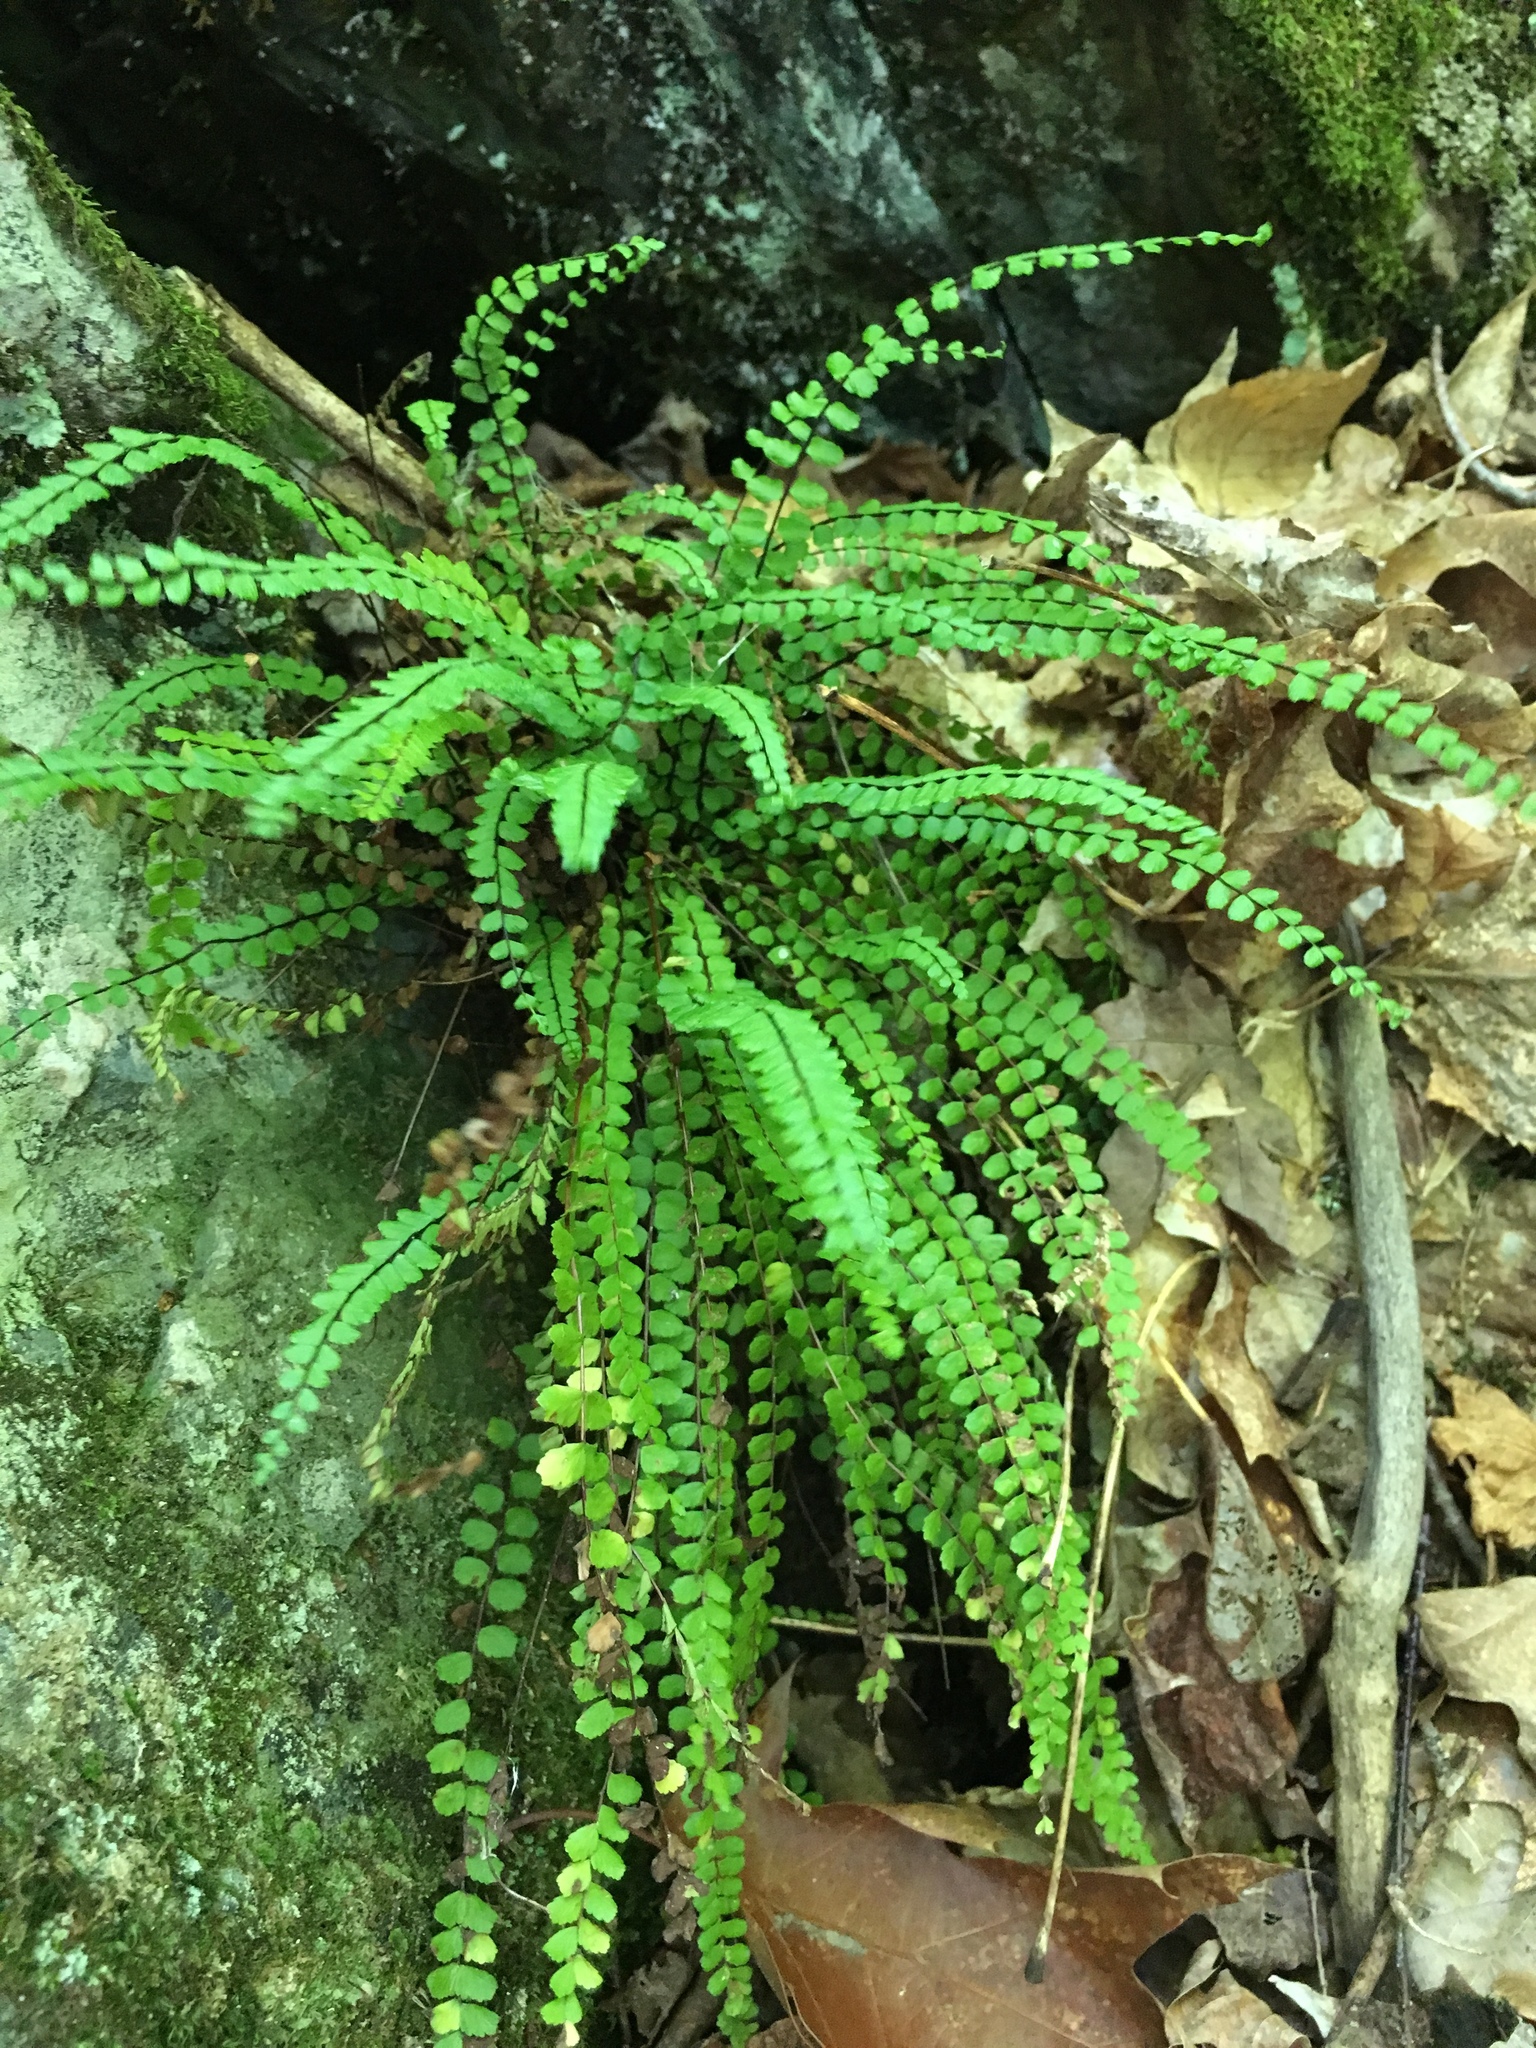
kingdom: Plantae
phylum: Tracheophyta
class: Polypodiopsida
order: Polypodiales
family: Aspleniaceae
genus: Asplenium
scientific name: Asplenium trichomanes
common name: Maidenhair spleenwort
